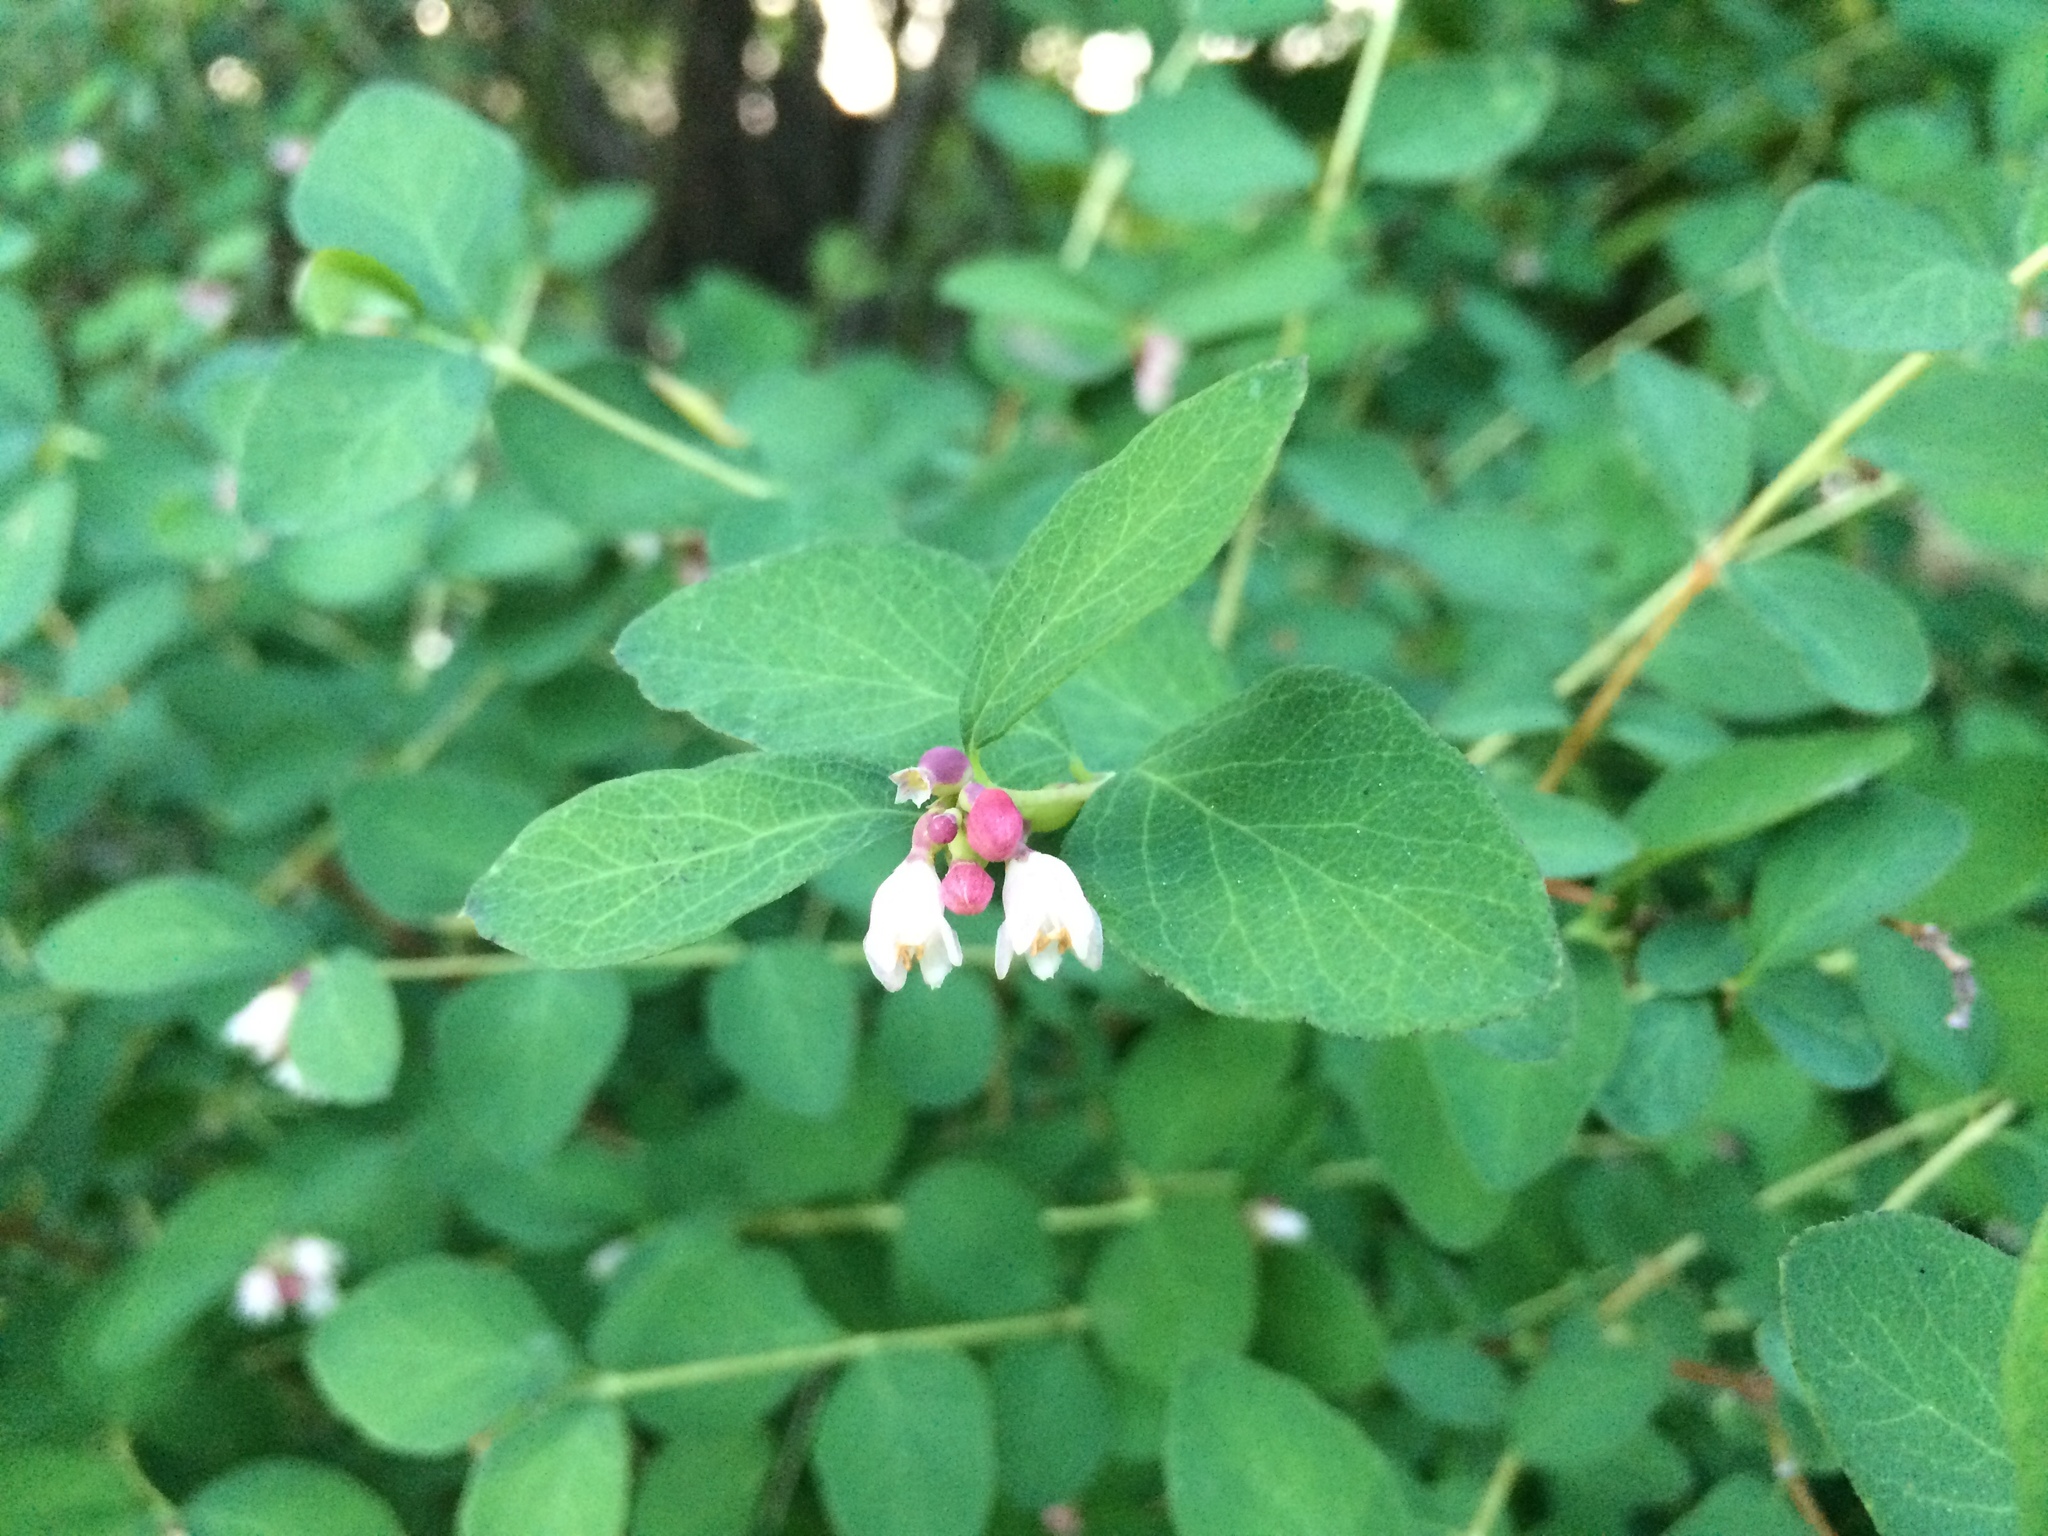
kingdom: Plantae
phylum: Tracheophyta
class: Magnoliopsida
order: Dipsacales
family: Caprifoliaceae
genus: Symphoricarpos
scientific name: Symphoricarpos albus
